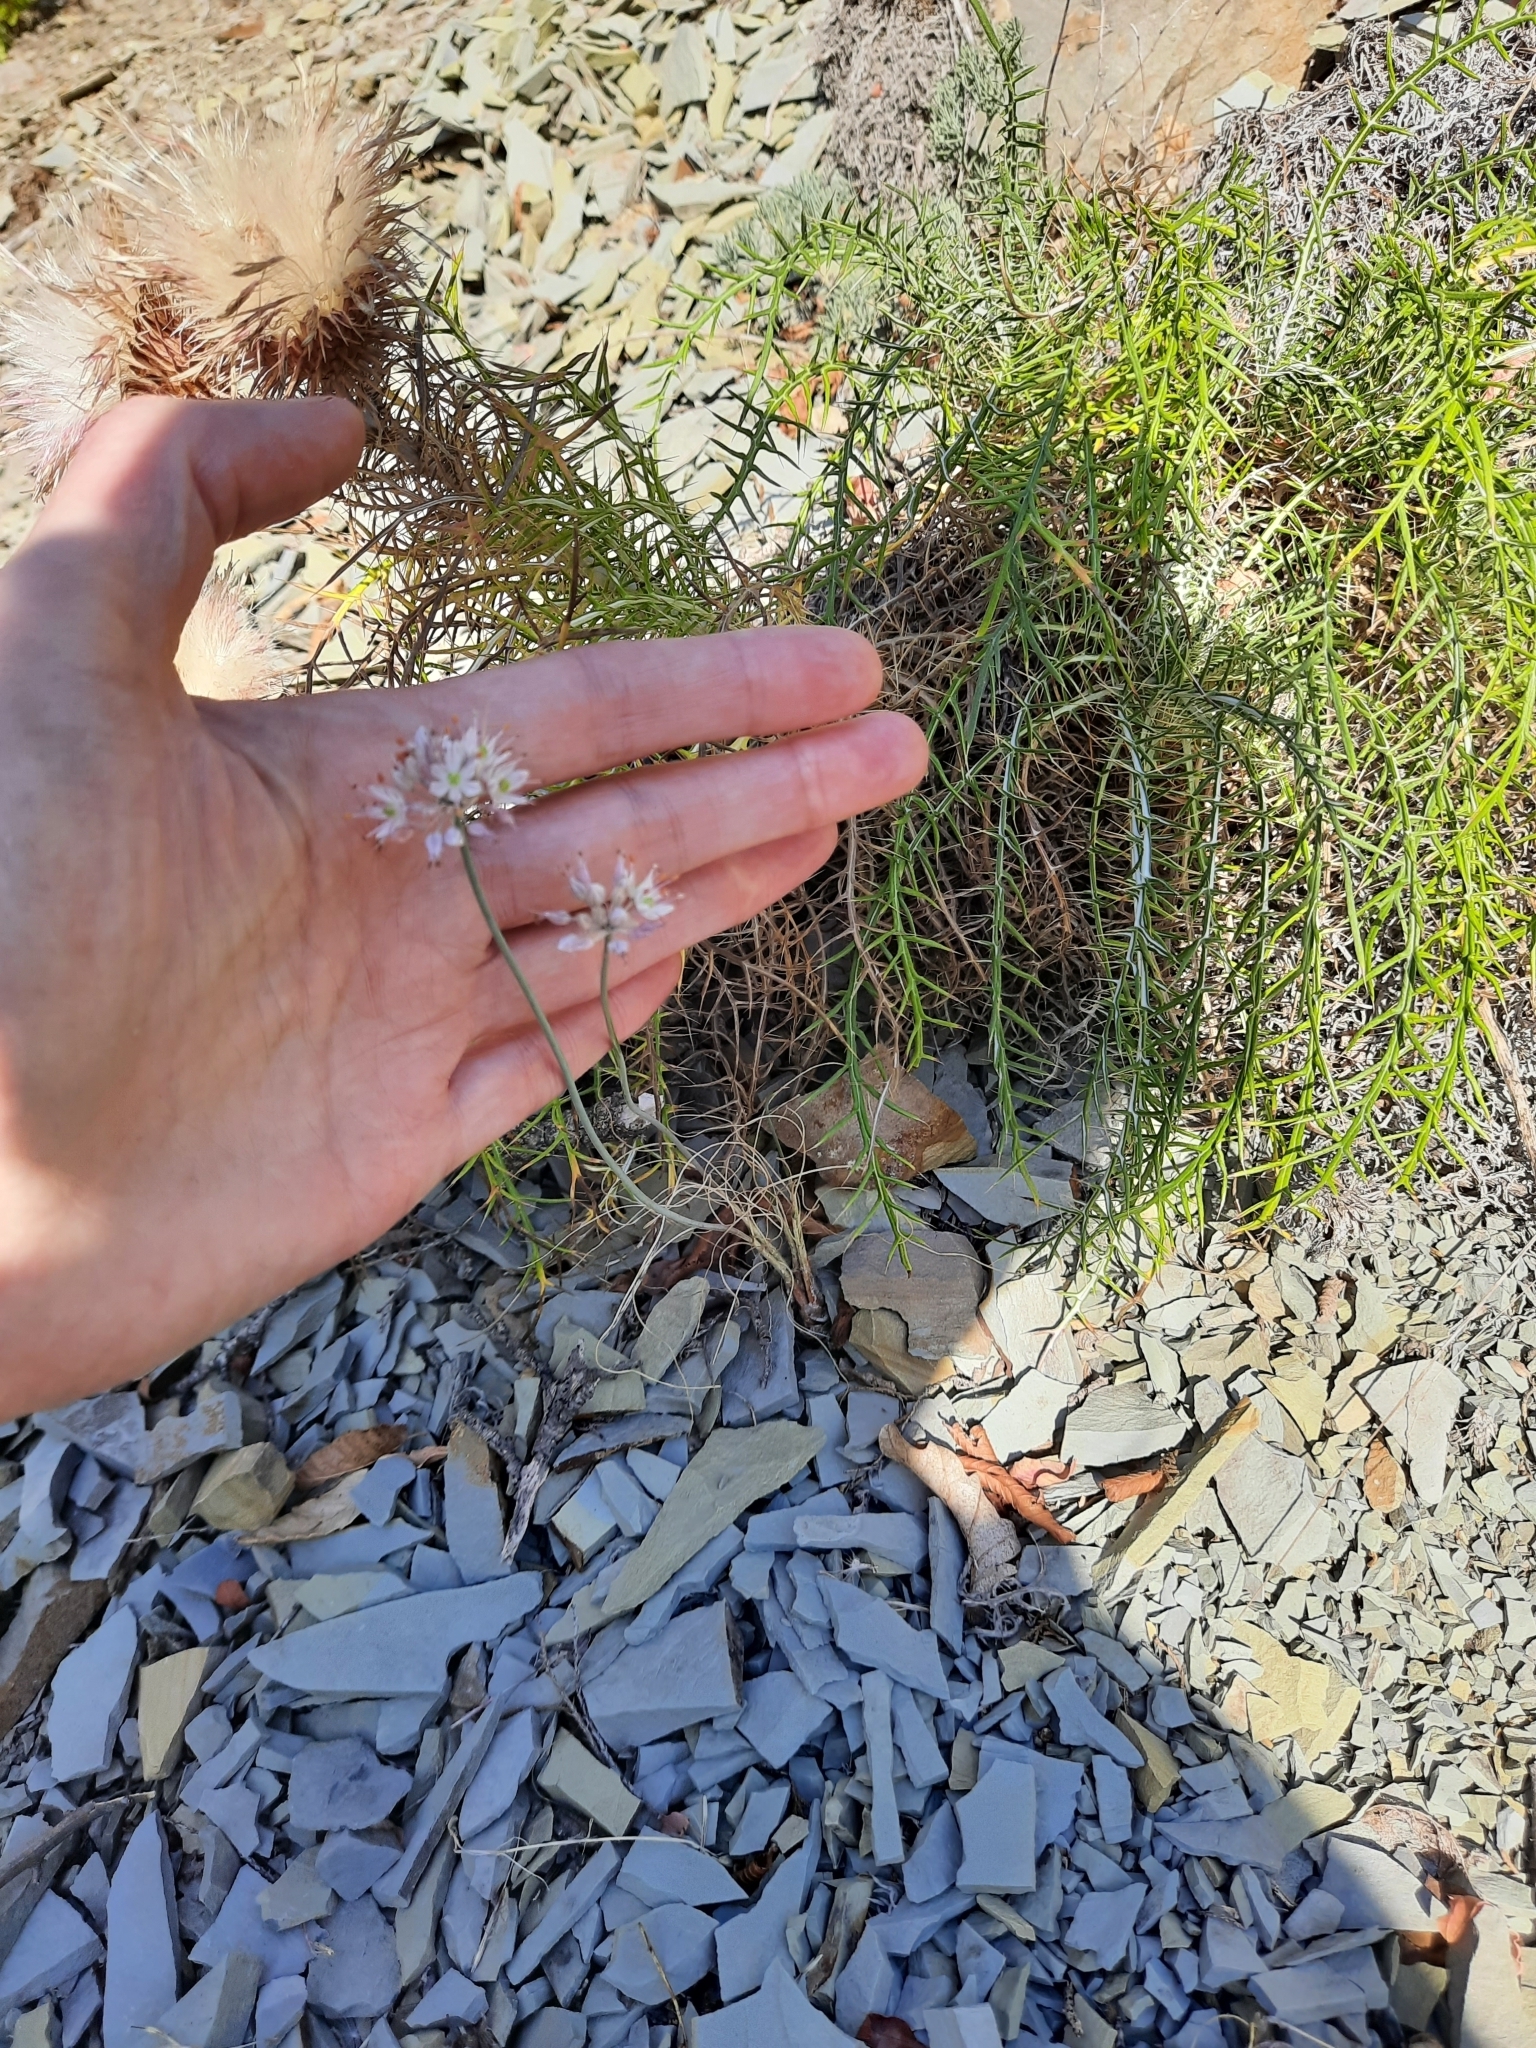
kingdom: Plantae
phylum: Tracheophyta
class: Liliopsida
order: Asparagales
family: Amaryllidaceae
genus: Allium
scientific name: Allium psebaicum
